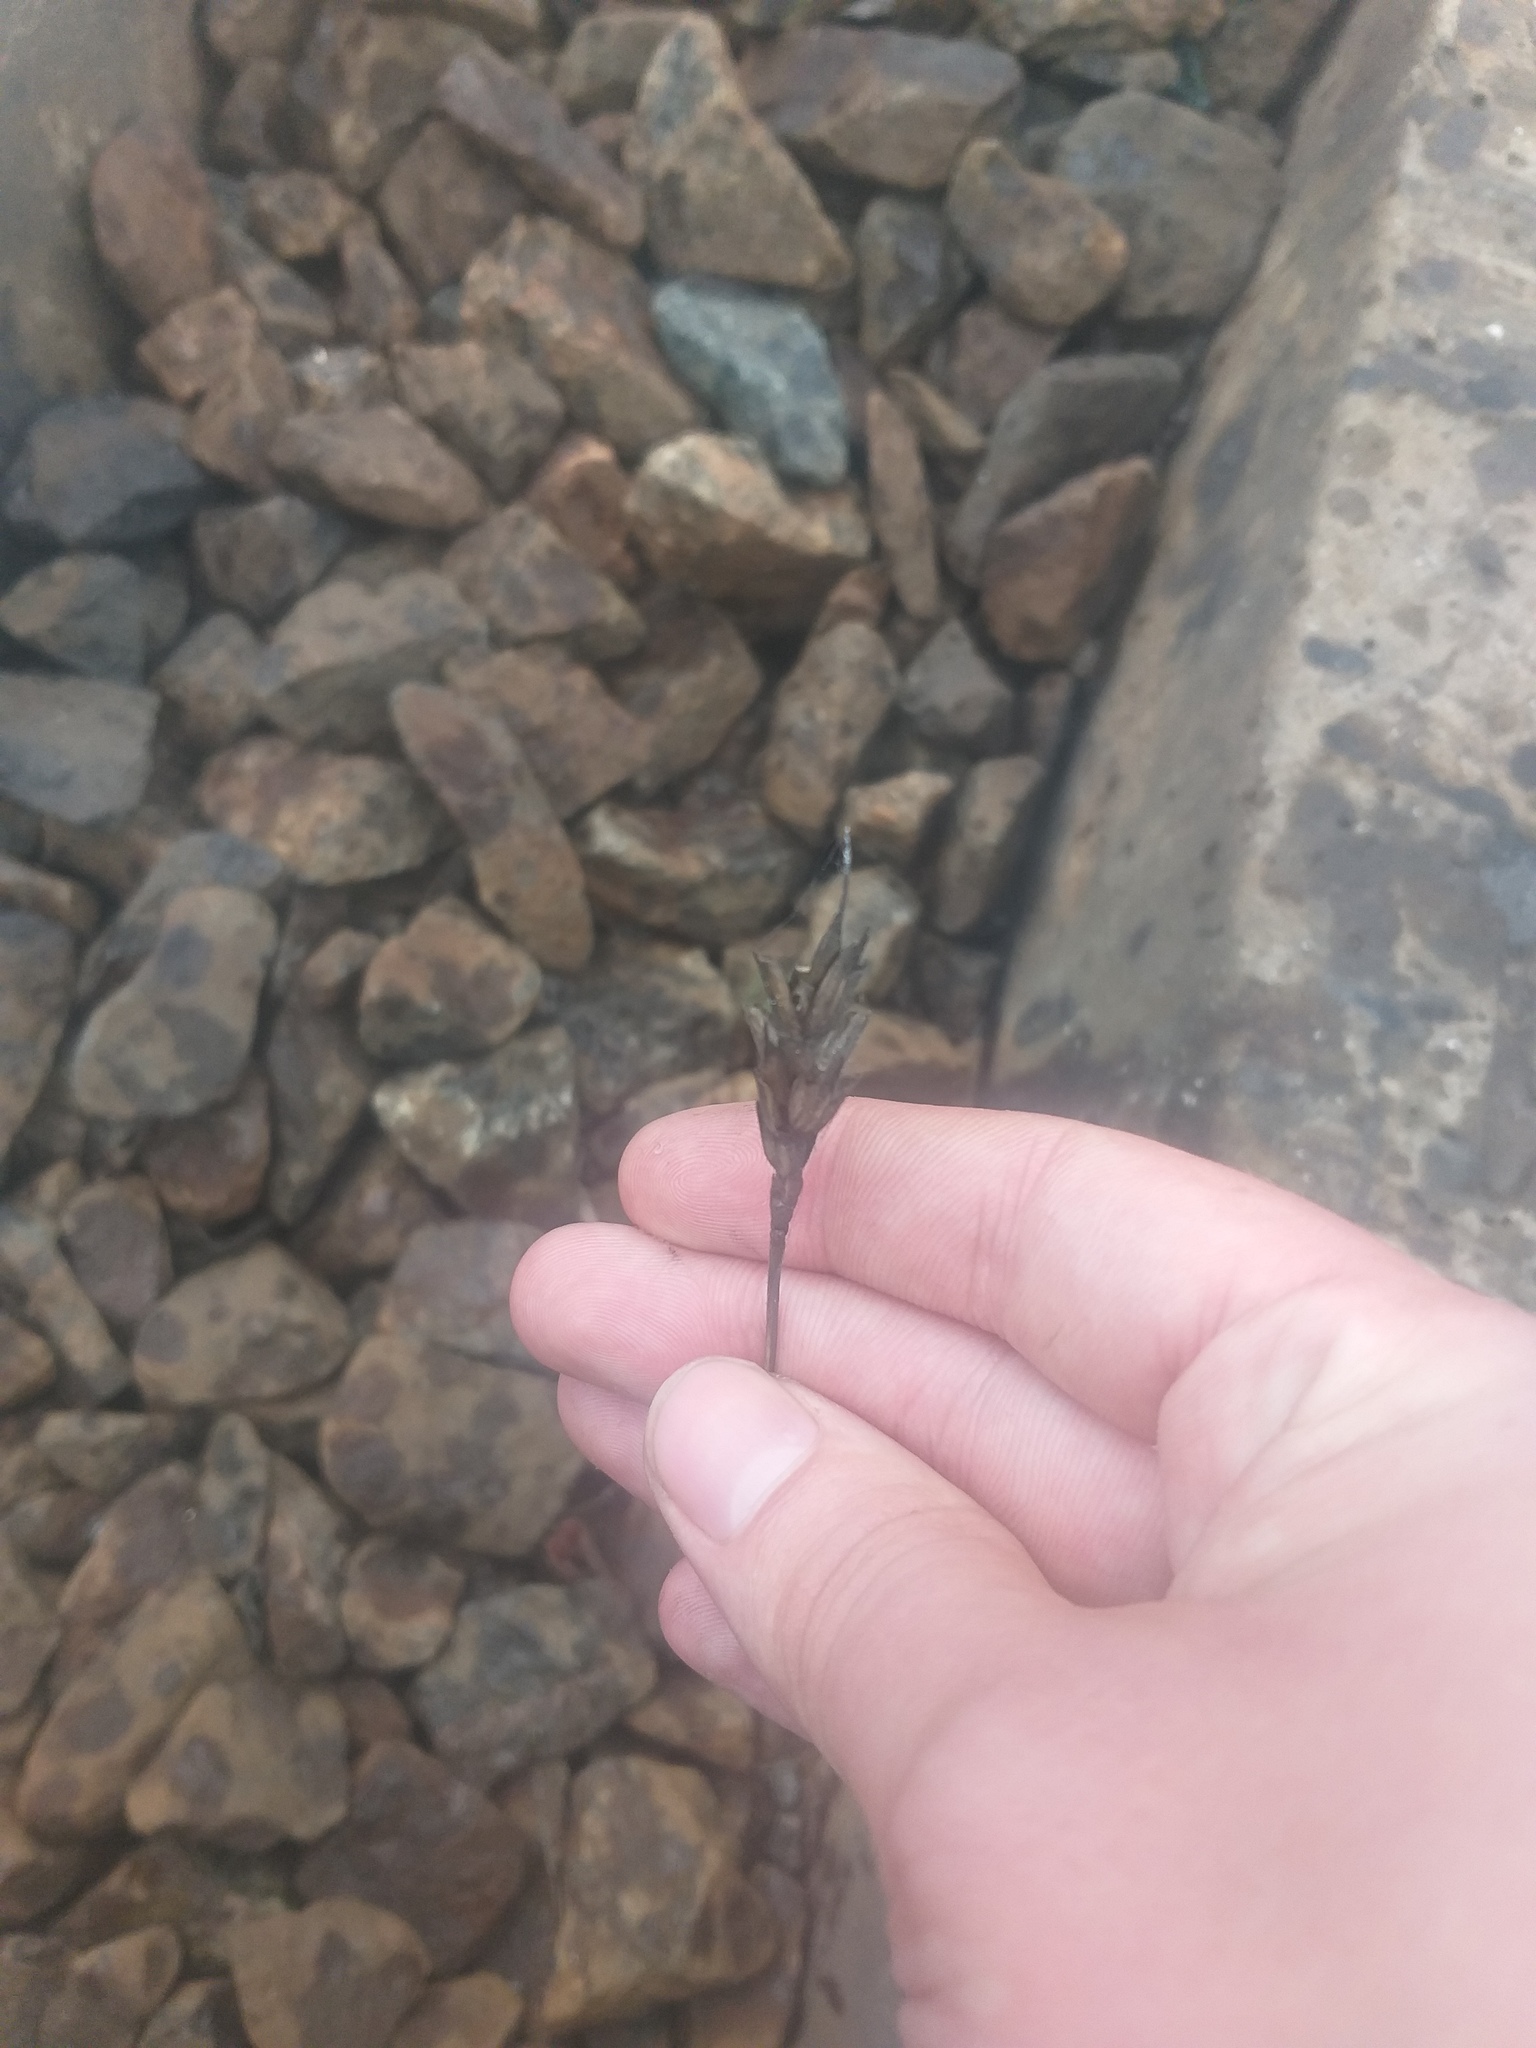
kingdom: Plantae
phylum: Tracheophyta
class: Liliopsida
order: Poales
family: Poaceae
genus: Triticum
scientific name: Triticum aestivum
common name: Common wheat
